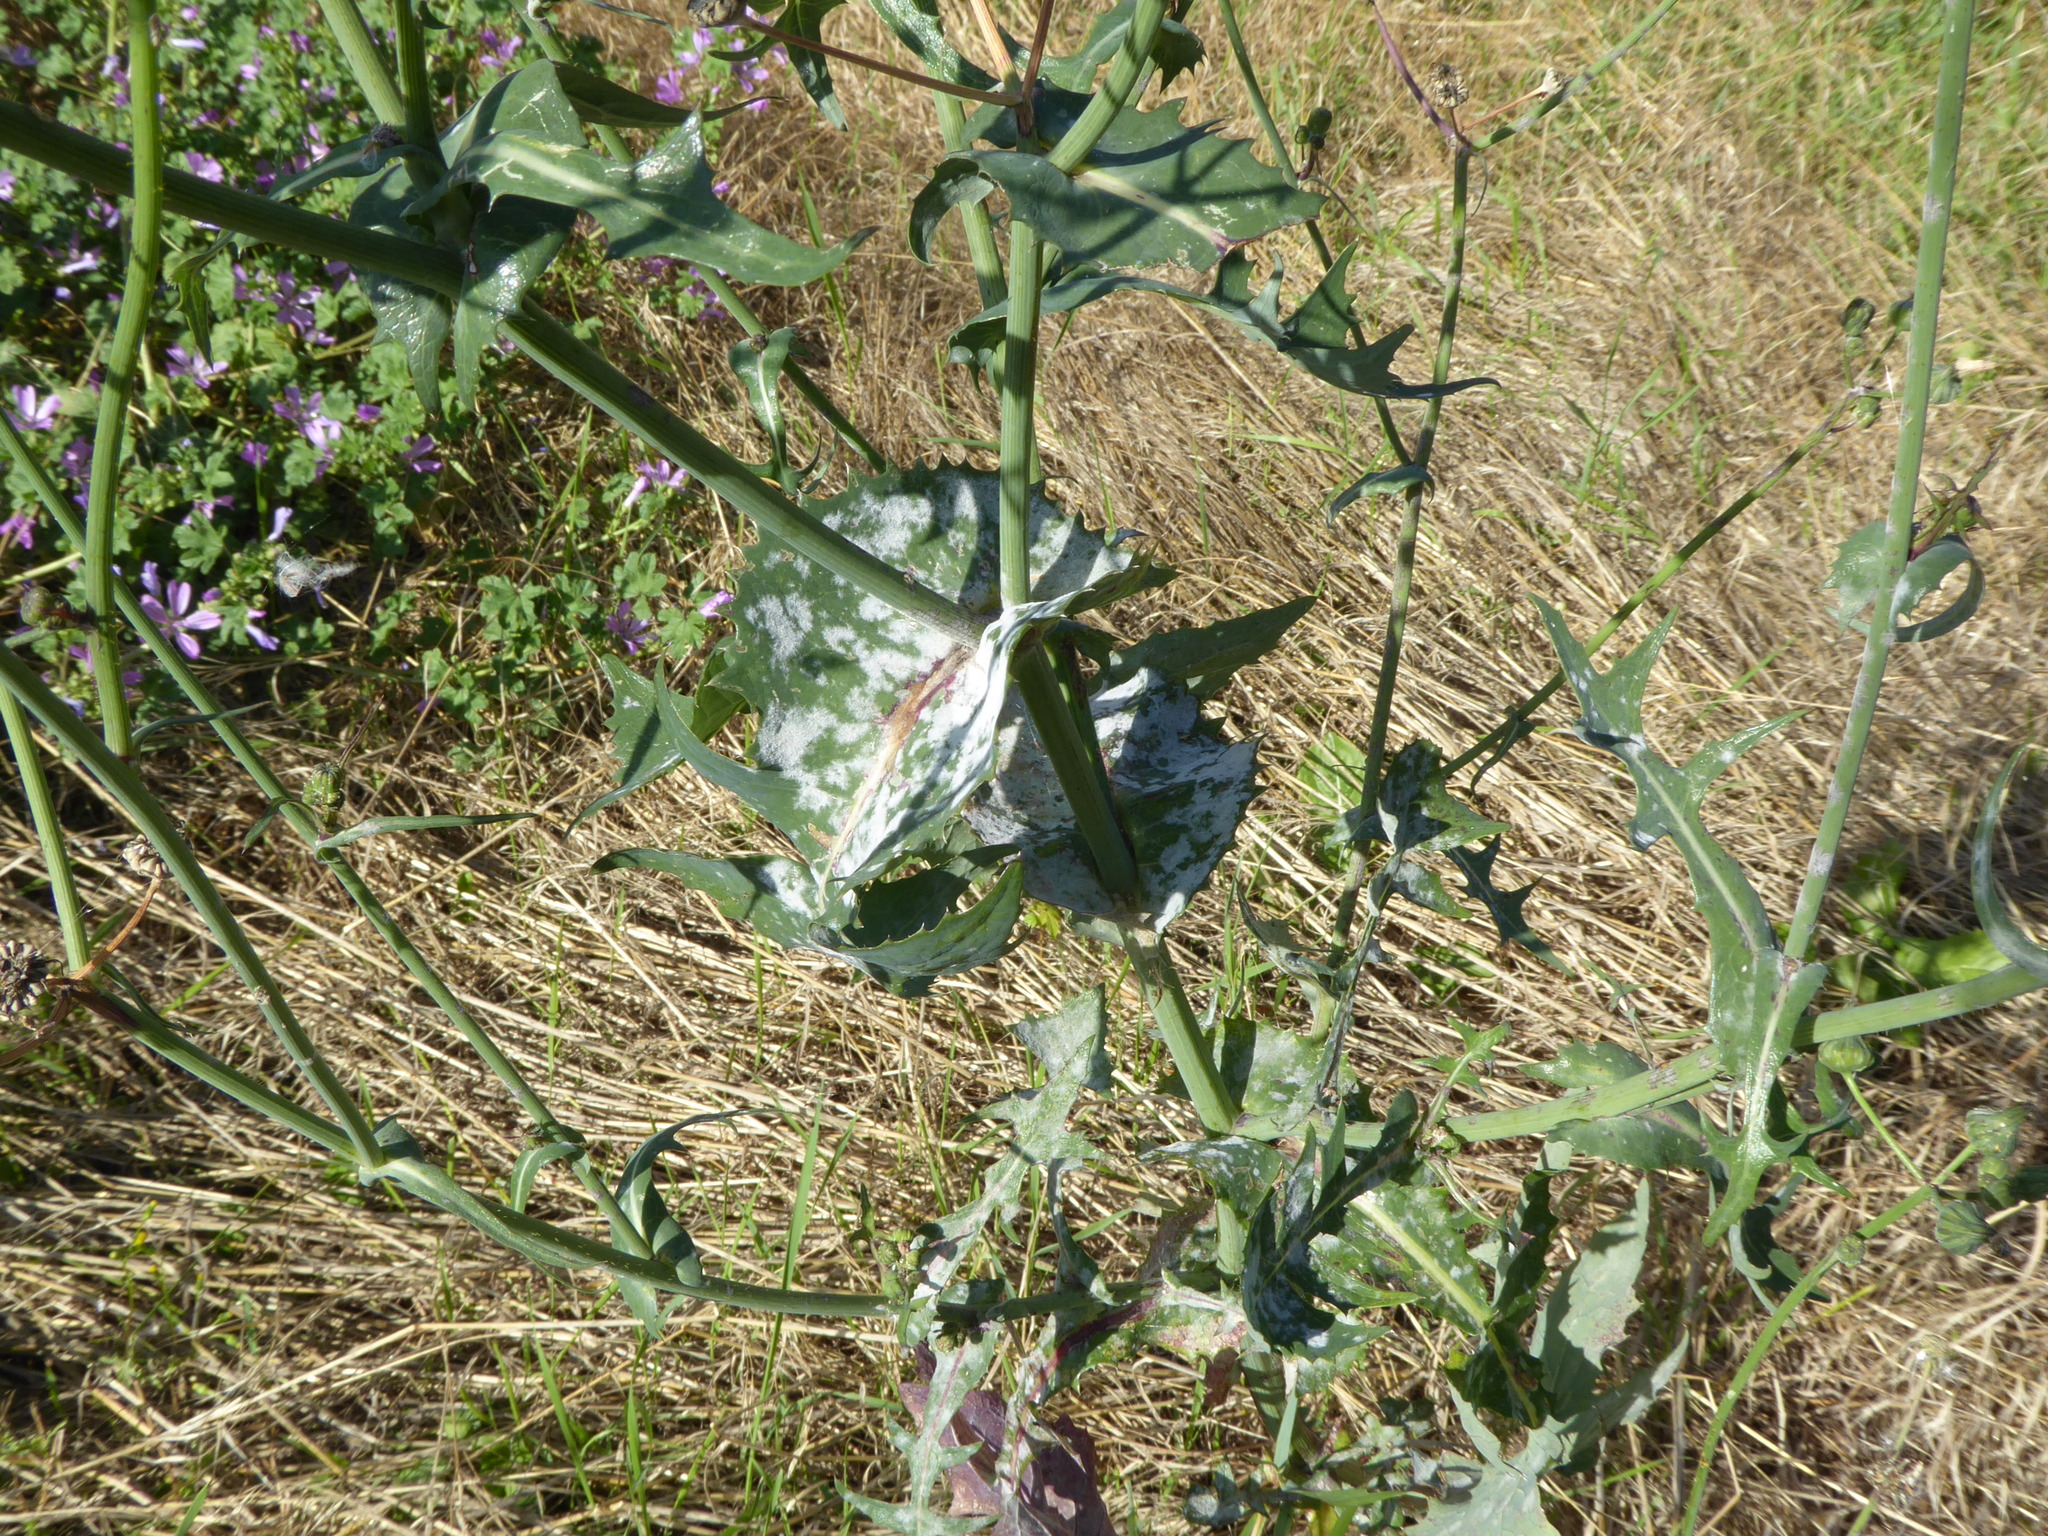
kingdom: Plantae
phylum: Tracheophyta
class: Magnoliopsida
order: Asterales
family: Asteraceae
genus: Sonchus
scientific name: Sonchus oleraceus
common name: Common sowthistle
